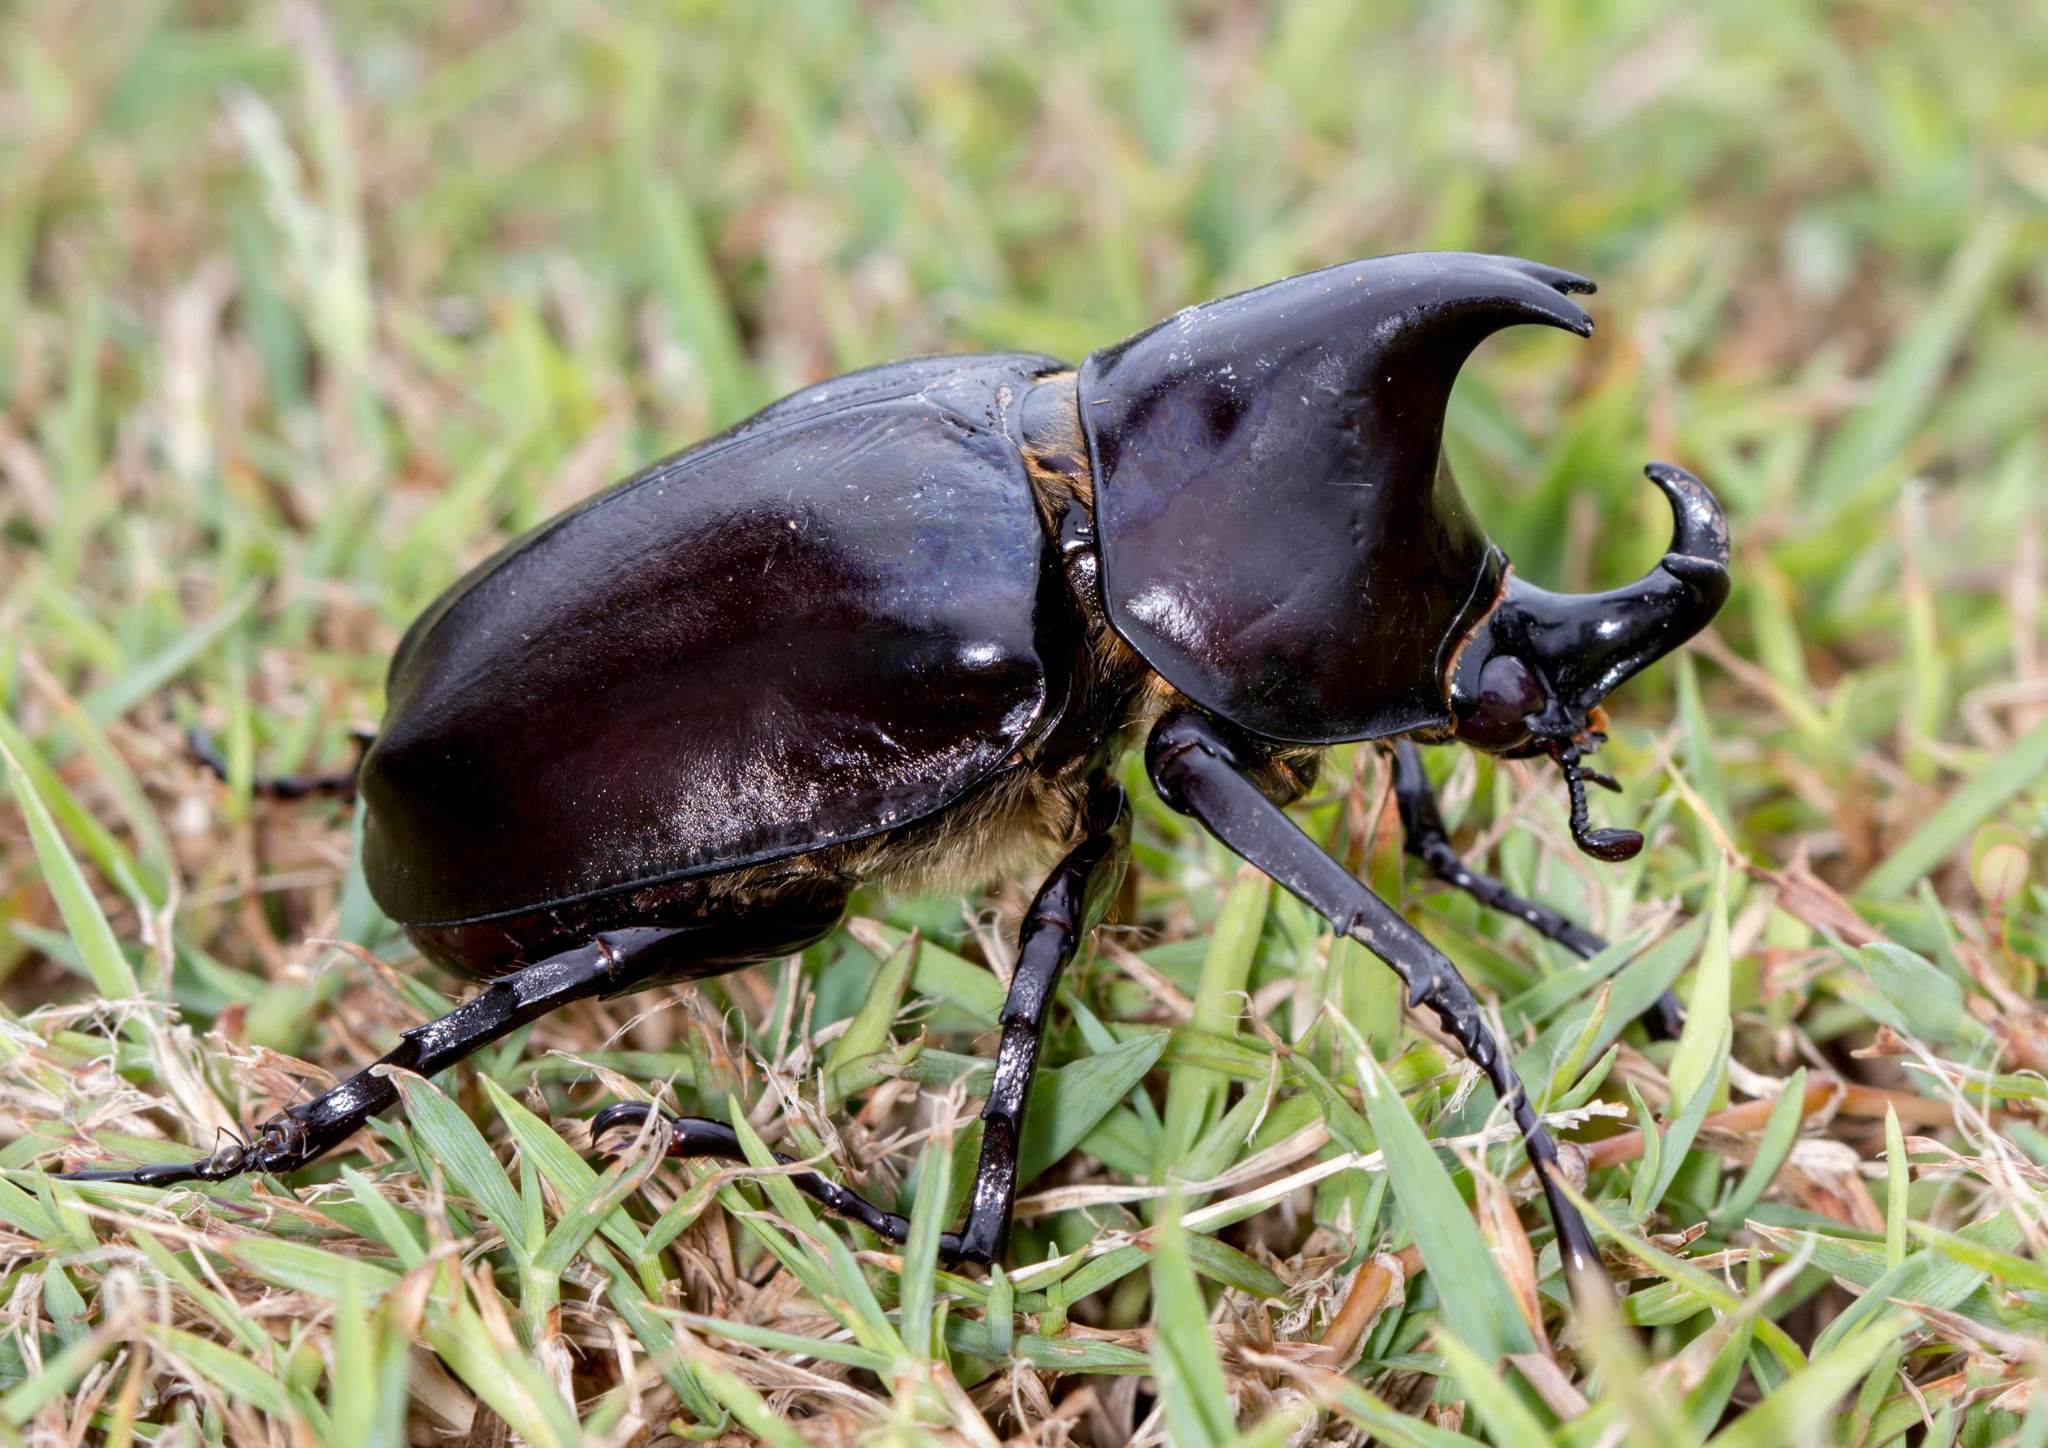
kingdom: Animalia
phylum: Arthropoda
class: Insecta
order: Coleoptera
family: Scarabaeidae
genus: Xylotrupes
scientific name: Xylotrupes australicus
